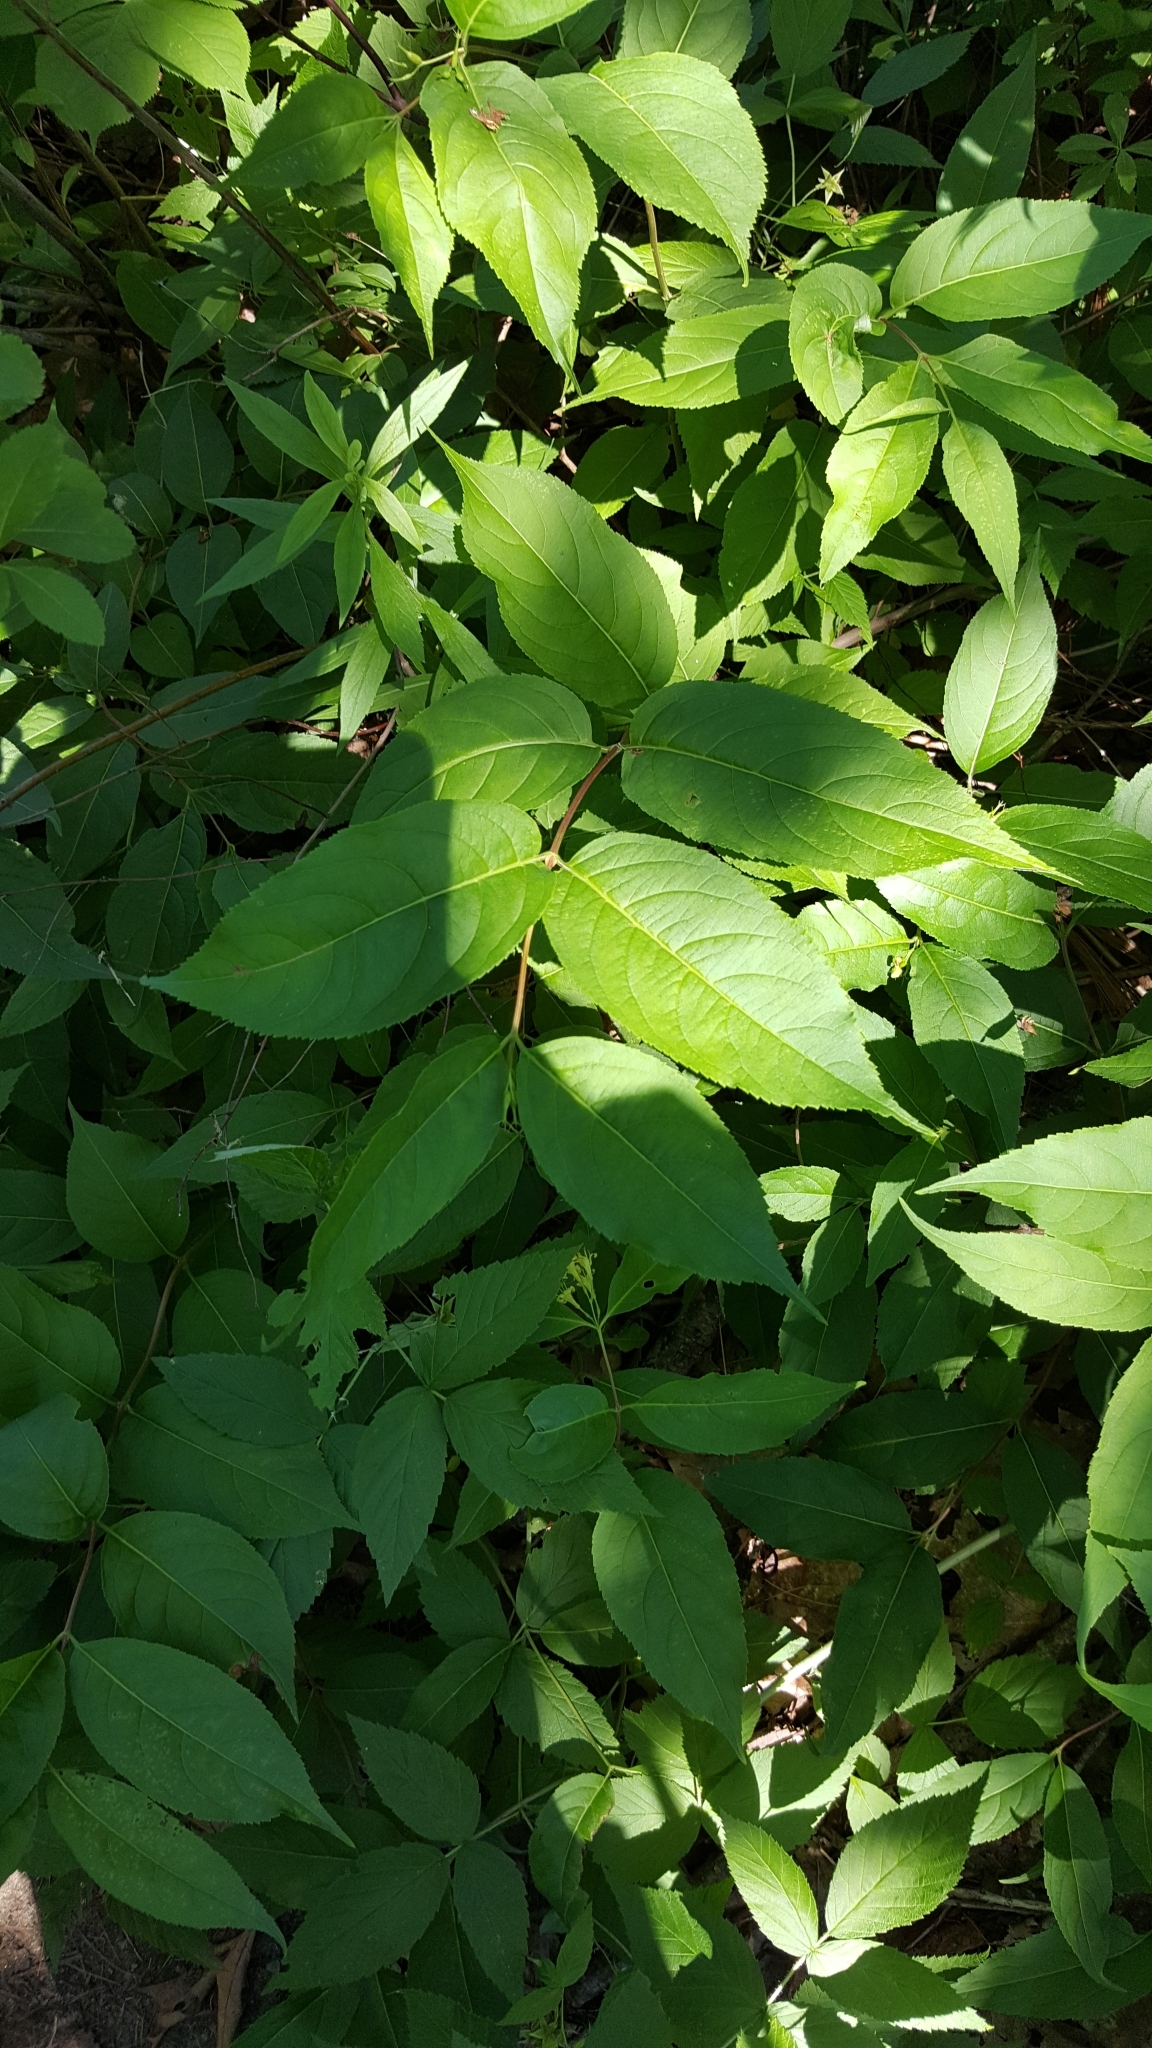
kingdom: Plantae
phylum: Tracheophyta
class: Magnoliopsida
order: Dipsacales
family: Caprifoliaceae
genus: Diervilla
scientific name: Diervilla lonicera
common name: Bush-honeysuckle
